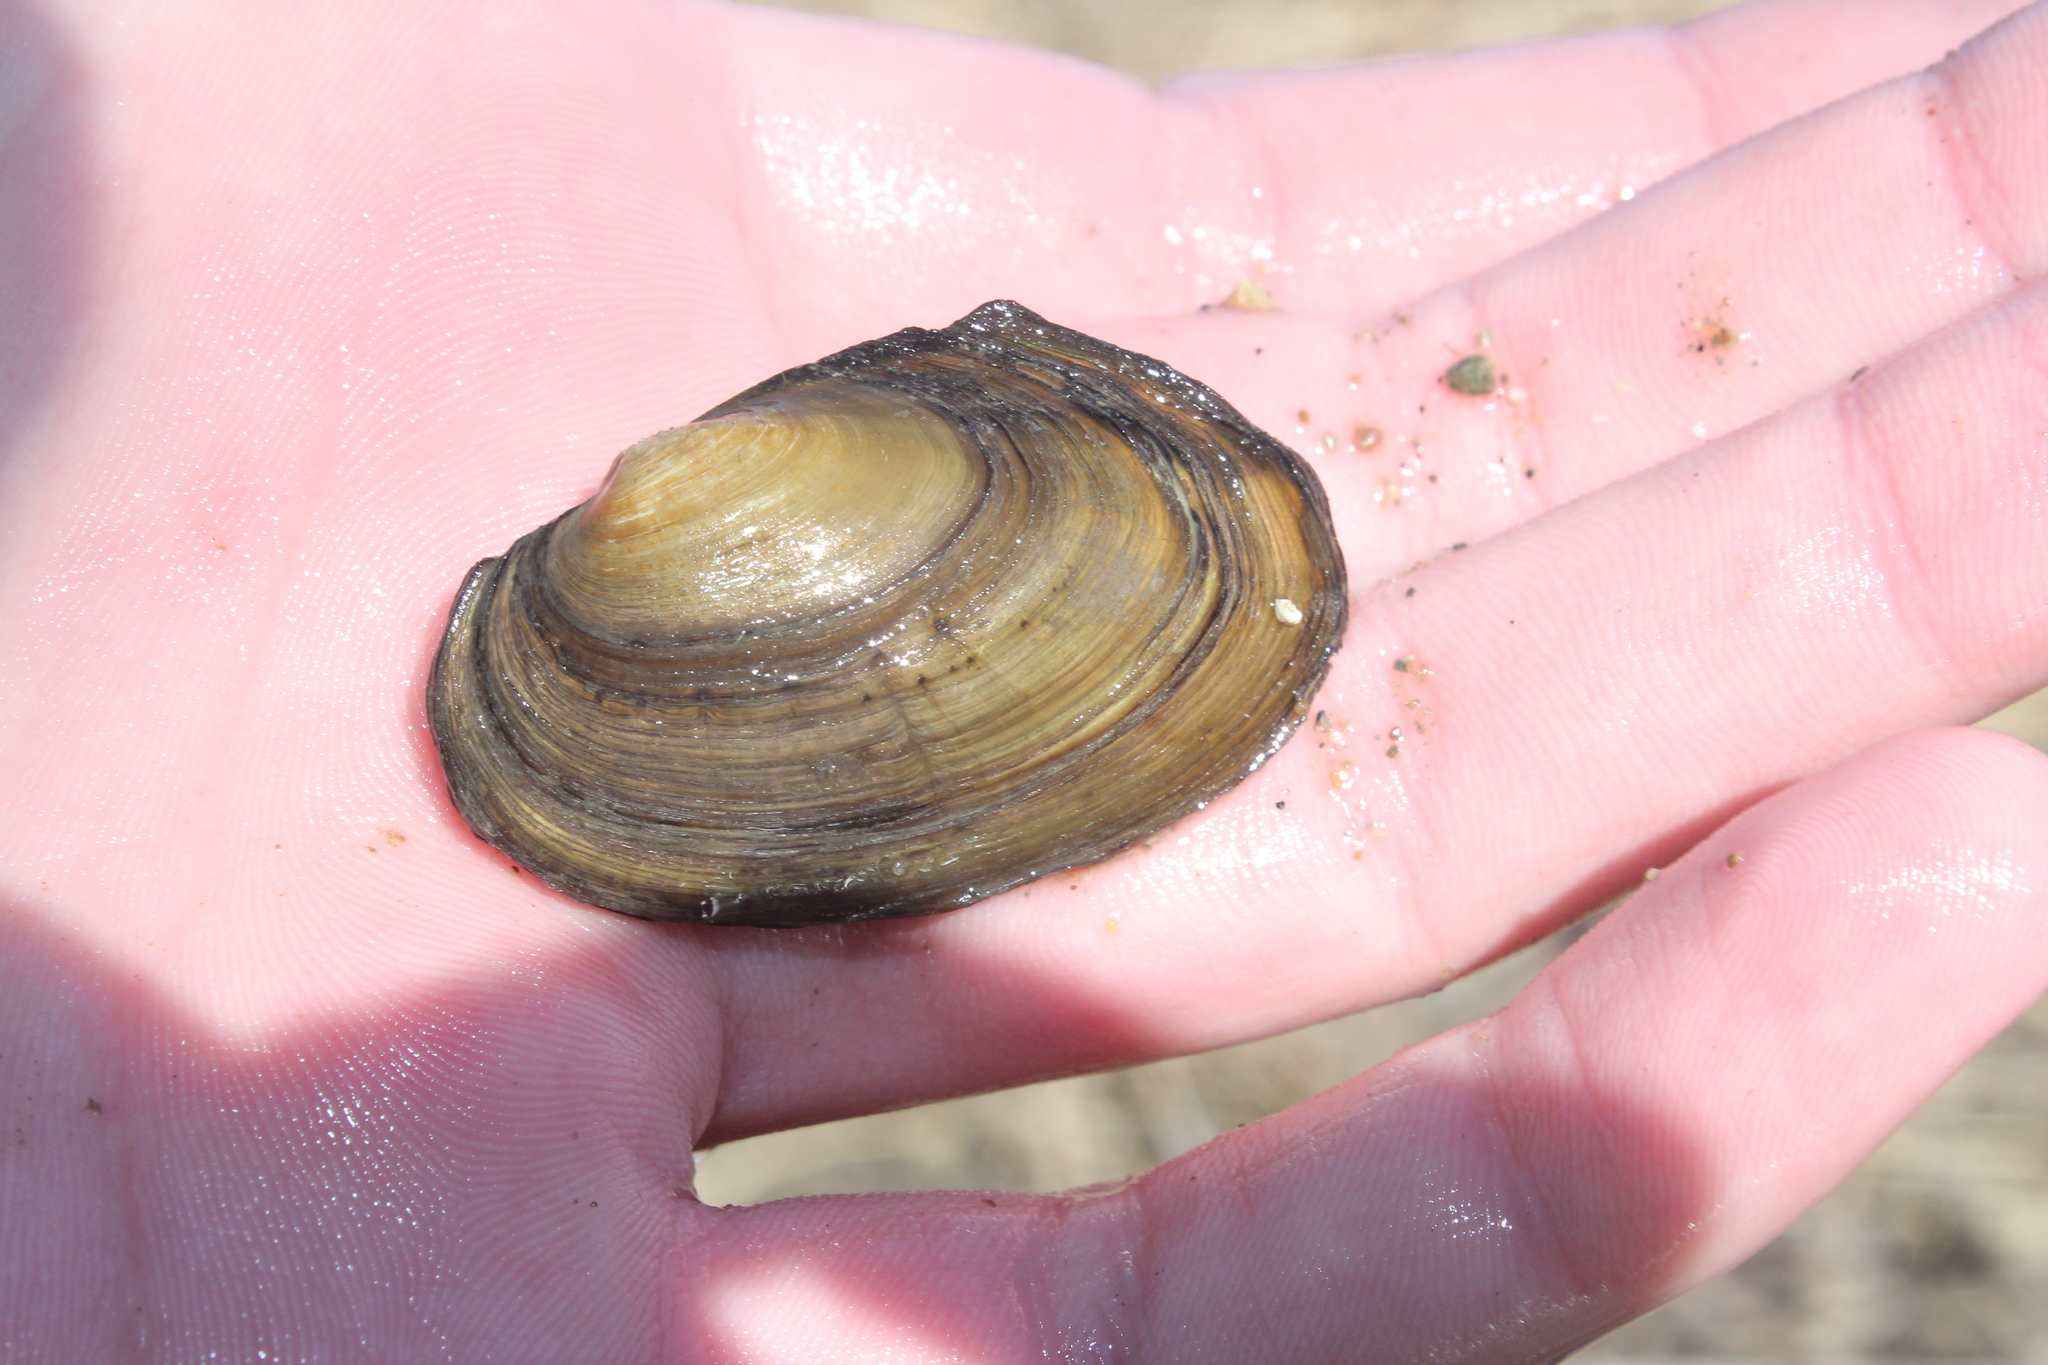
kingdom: Animalia
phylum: Mollusca
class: Bivalvia
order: Unionida
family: Unionidae
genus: Pyganodon
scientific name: Pyganodon grandis
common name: Giant floater
